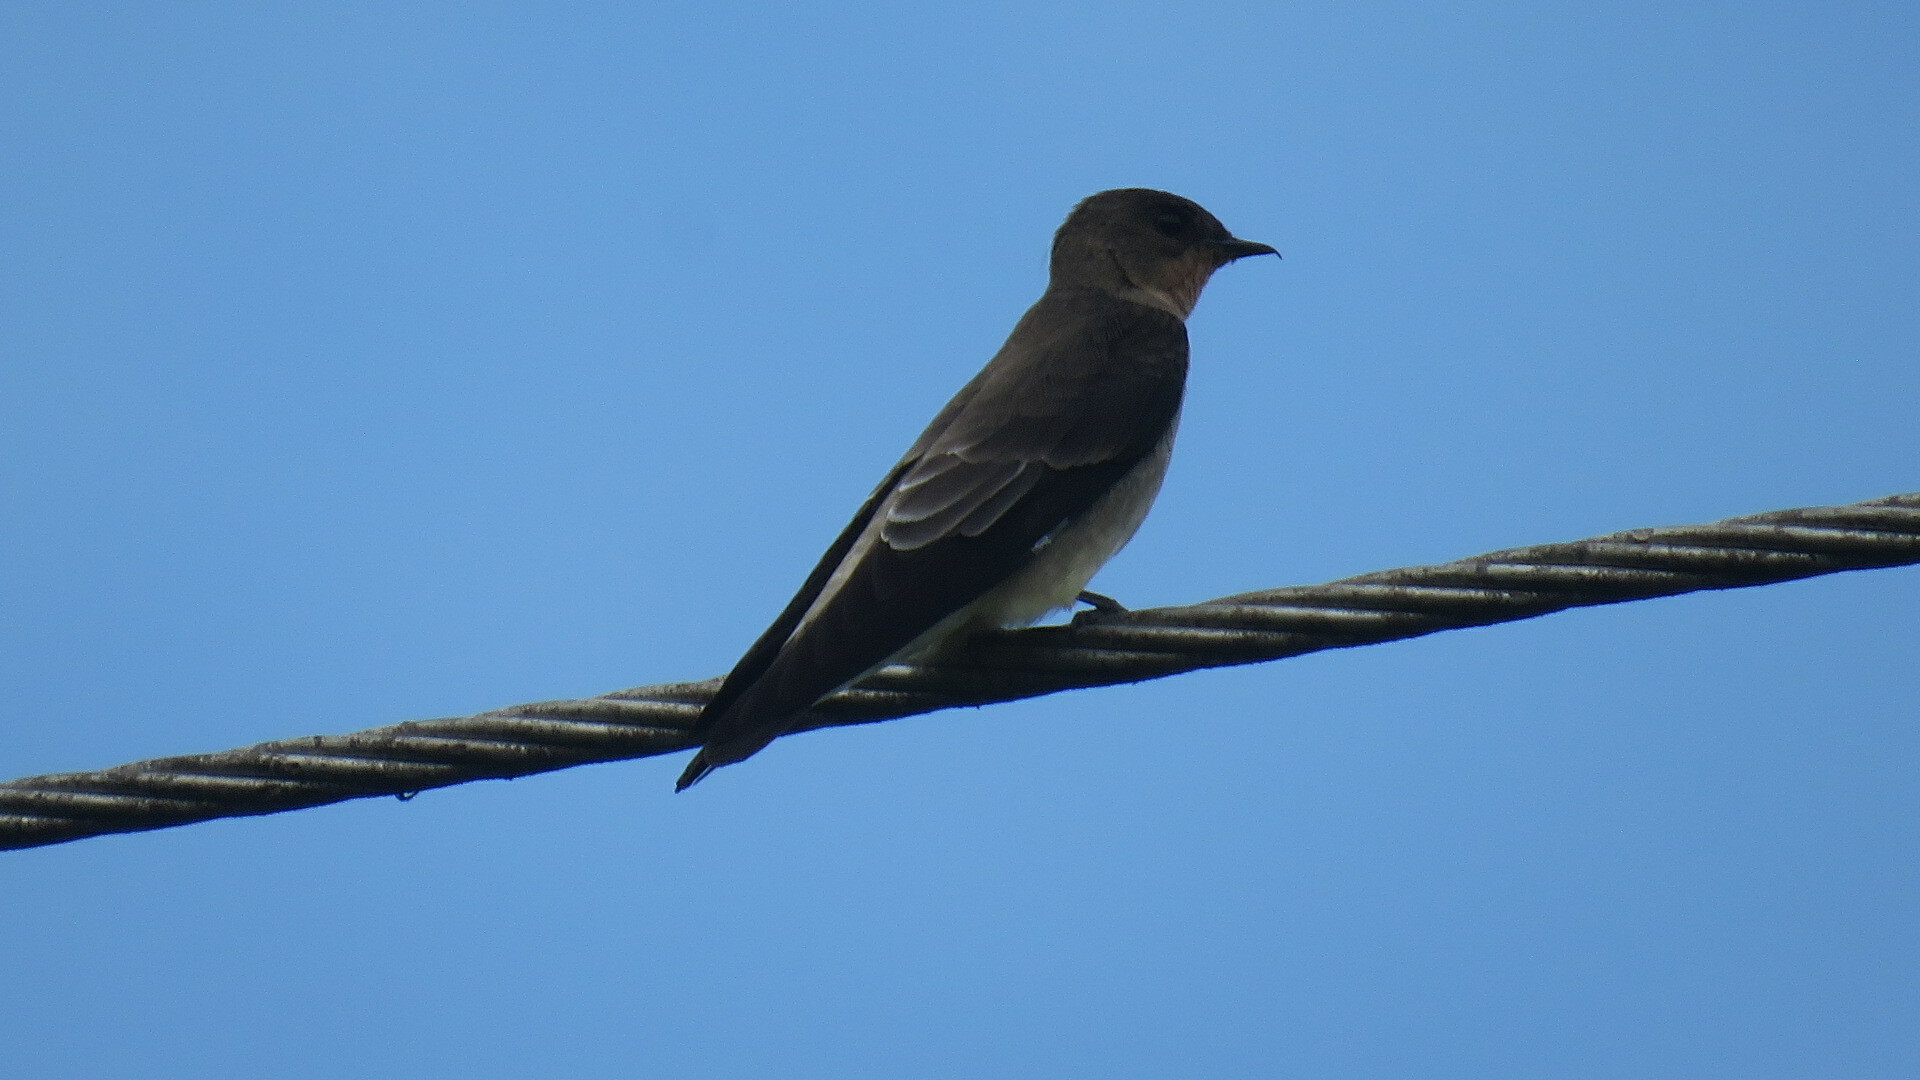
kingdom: Animalia
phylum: Chordata
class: Aves
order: Passeriformes
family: Hirundinidae
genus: Stelgidopteryx
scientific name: Stelgidopteryx ruficollis
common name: Southern rough-winged swallow
